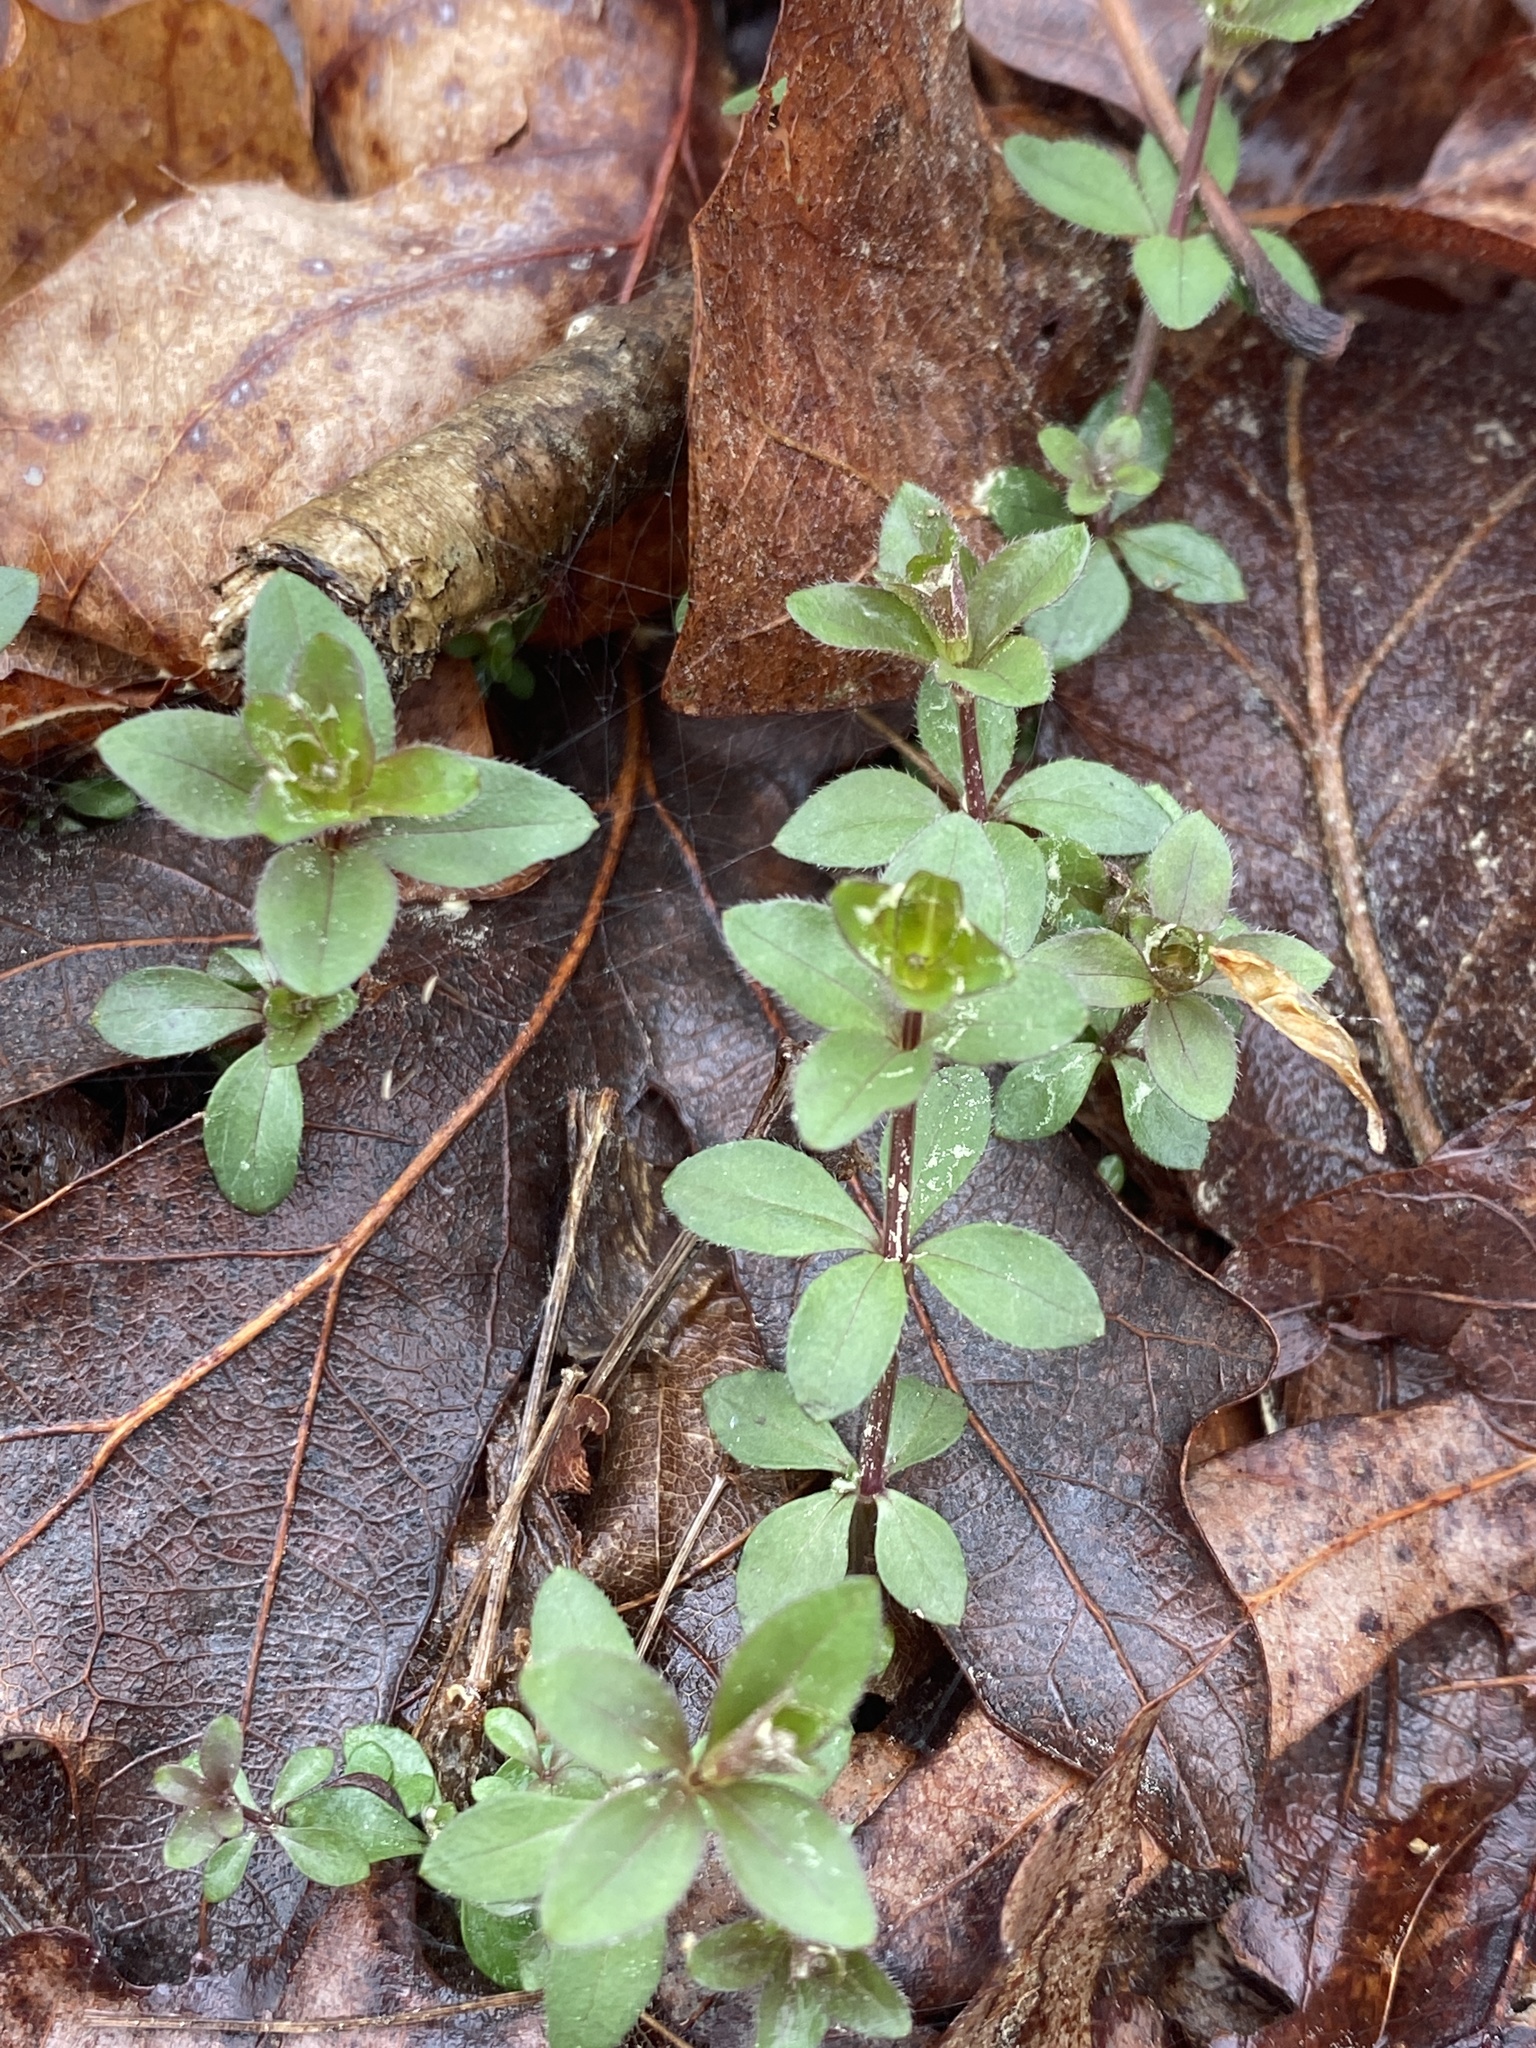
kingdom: Plantae
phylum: Tracheophyta
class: Magnoliopsida
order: Gentianales
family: Rubiaceae
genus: Galium
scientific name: Galium circaezans
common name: Forest bedstraw
